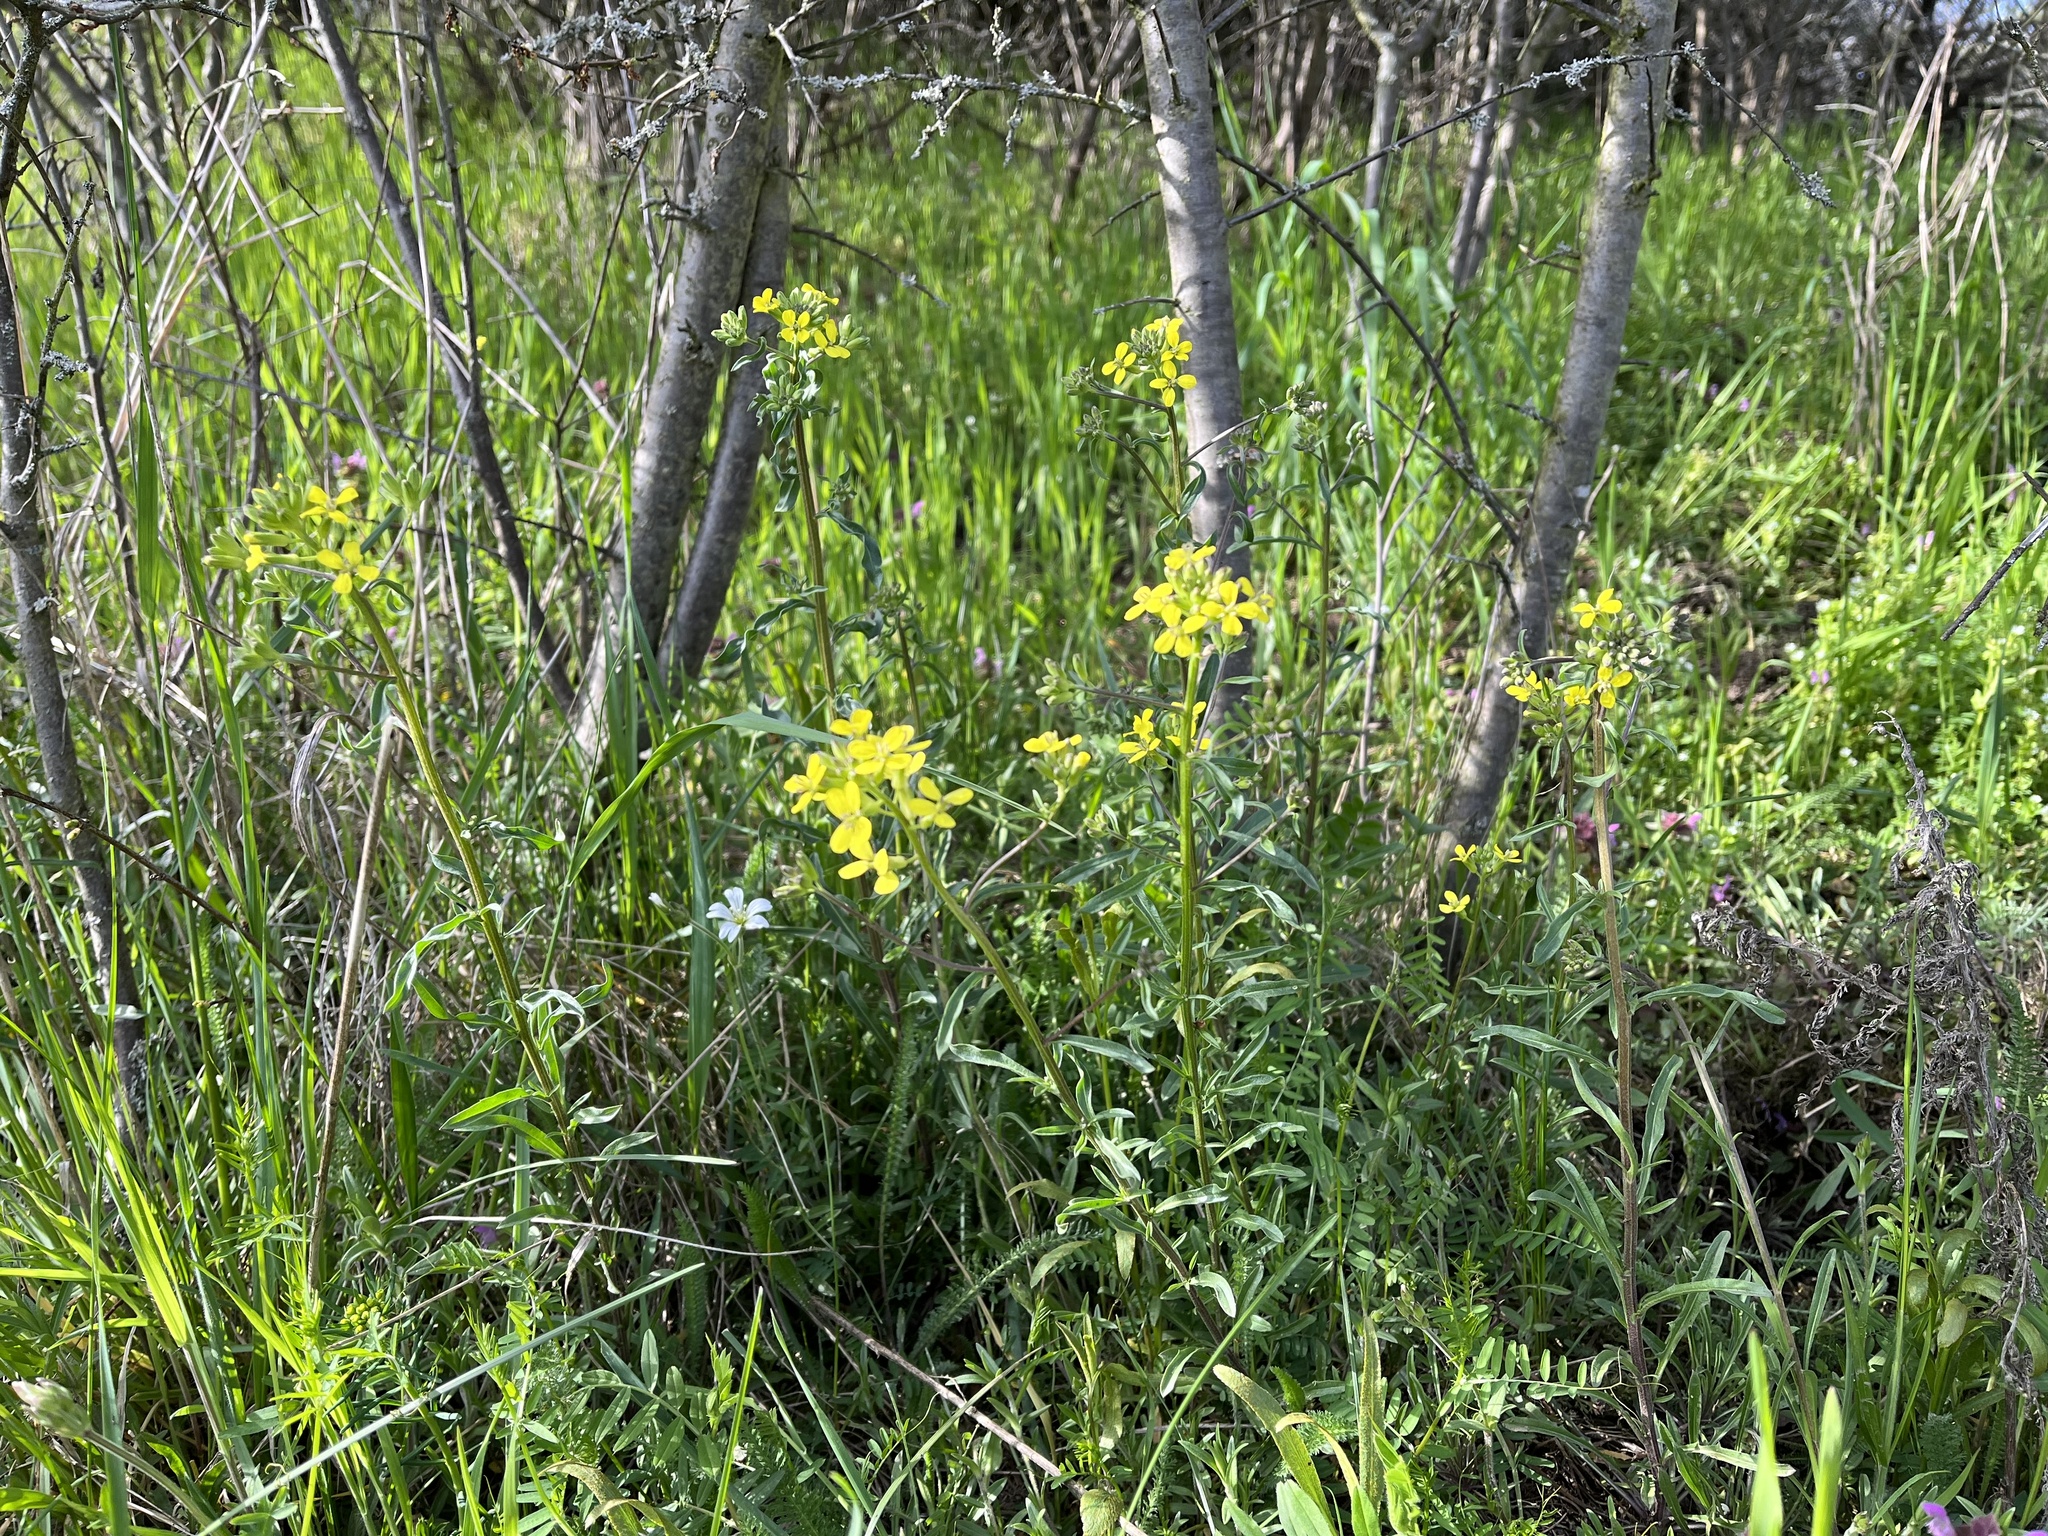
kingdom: Plantae
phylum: Tracheophyta
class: Magnoliopsida
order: Brassicales
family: Brassicaceae
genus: Erysimum
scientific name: Erysimum crepidifolium
